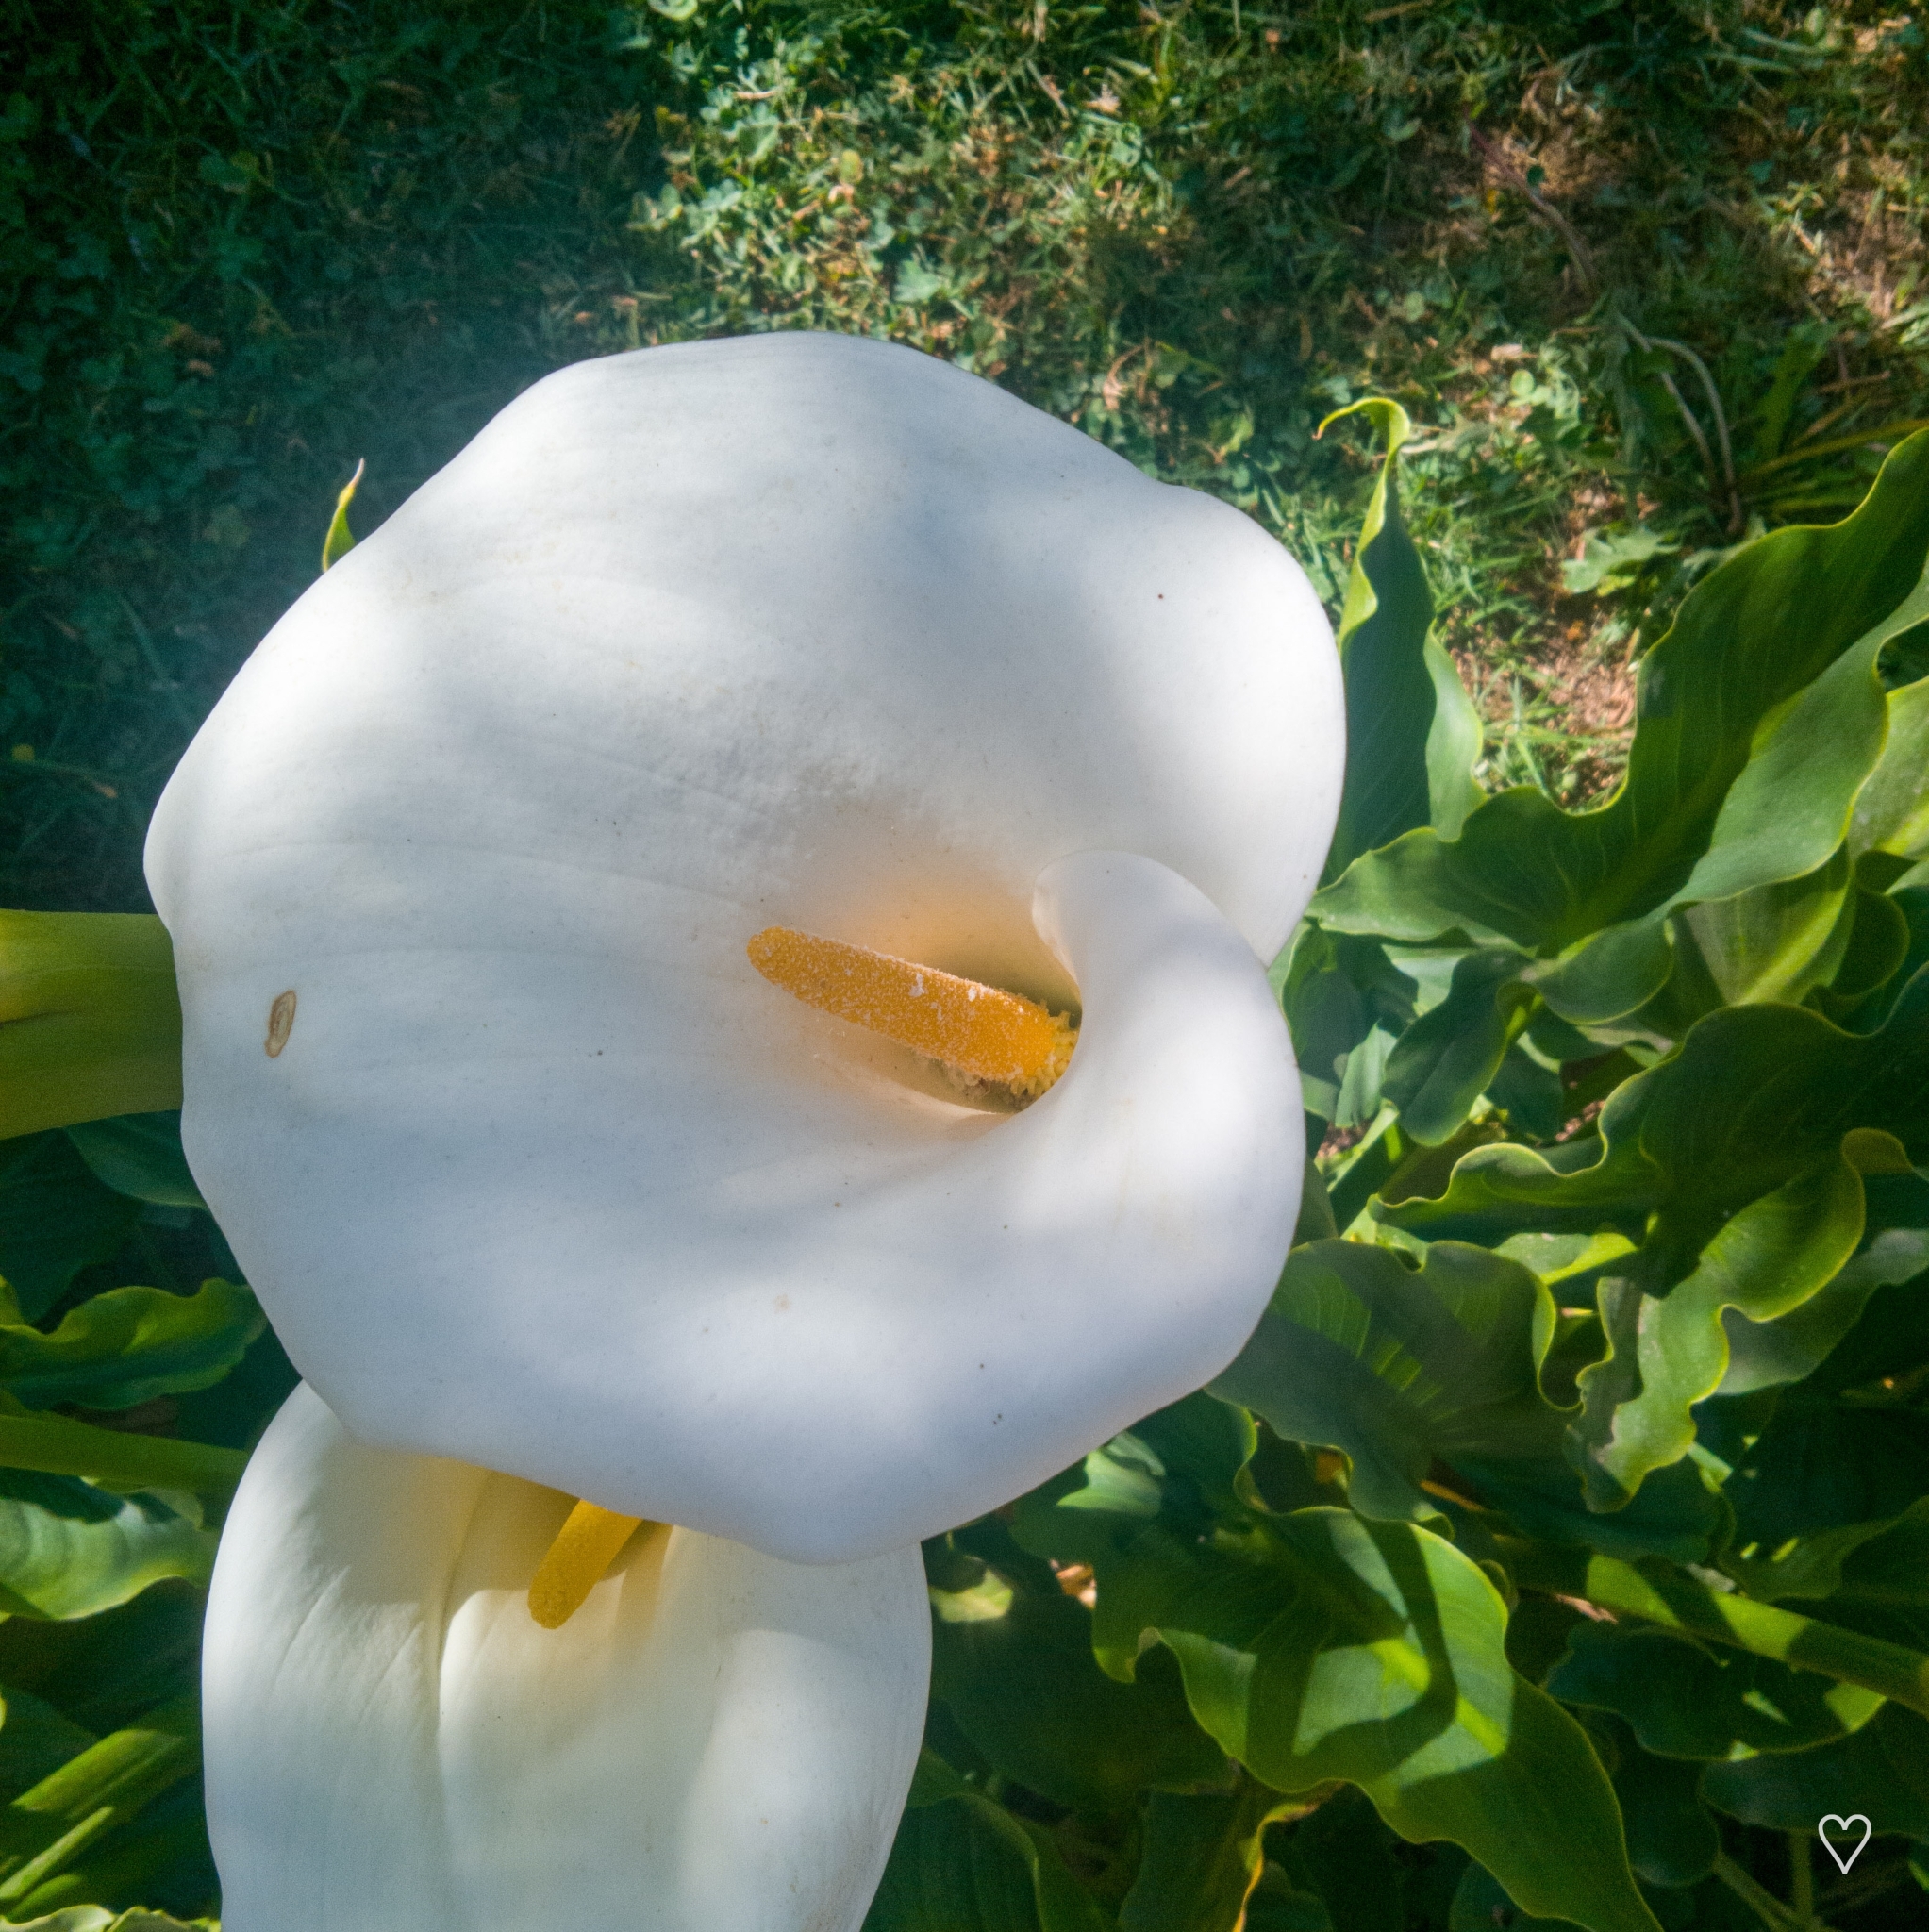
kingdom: Plantae
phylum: Tracheophyta
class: Liliopsida
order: Alismatales
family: Araceae
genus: Zantedeschia
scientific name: Zantedeschia aethiopica
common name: Altar-lily
